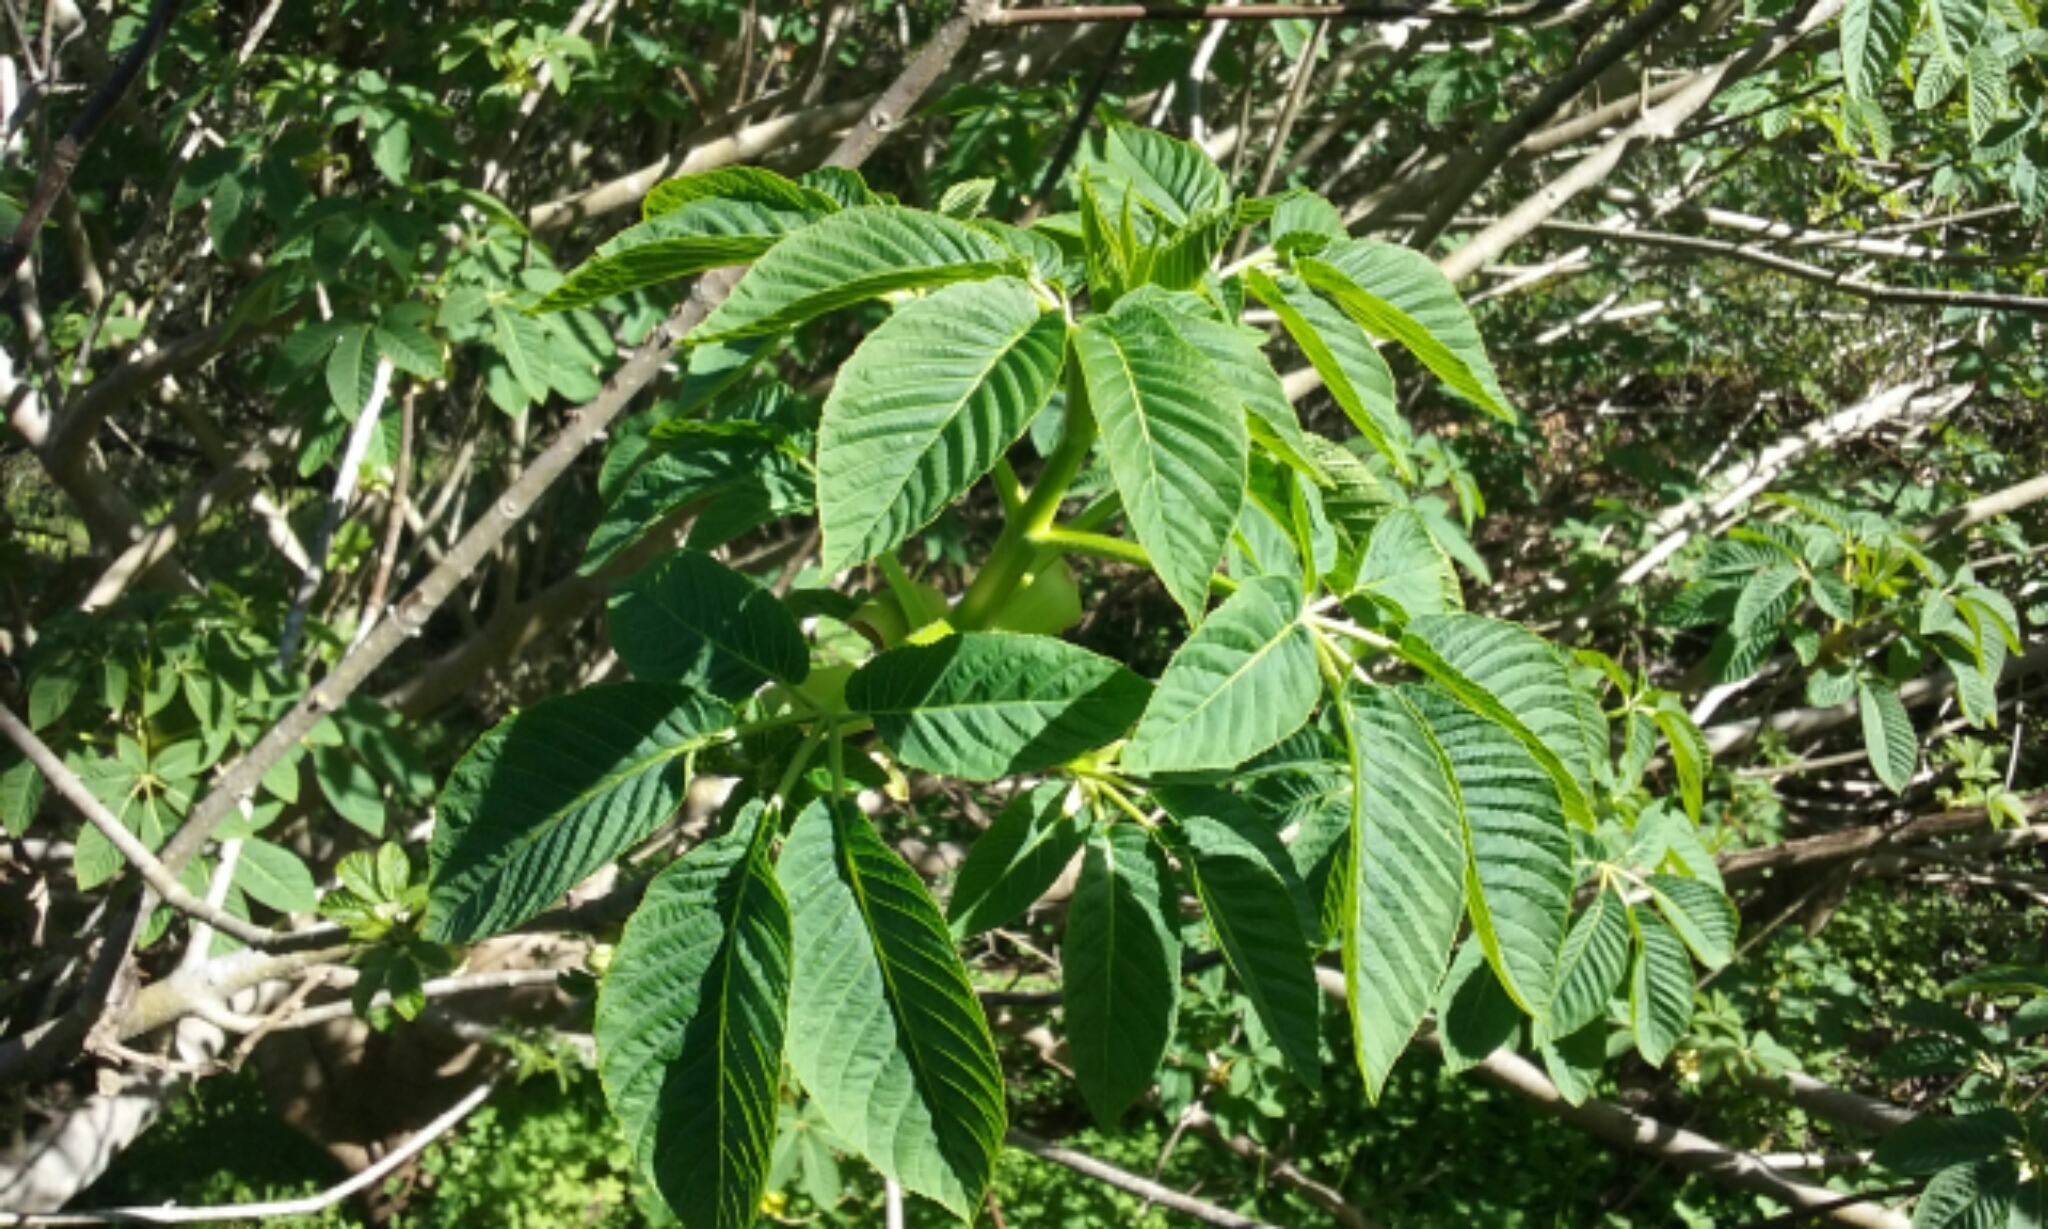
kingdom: Plantae
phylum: Tracheophyta
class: Magnoliopsida
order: Sapindales
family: Sapindaceae
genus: Aesculus
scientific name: Aesculus californica
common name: California buckeye
